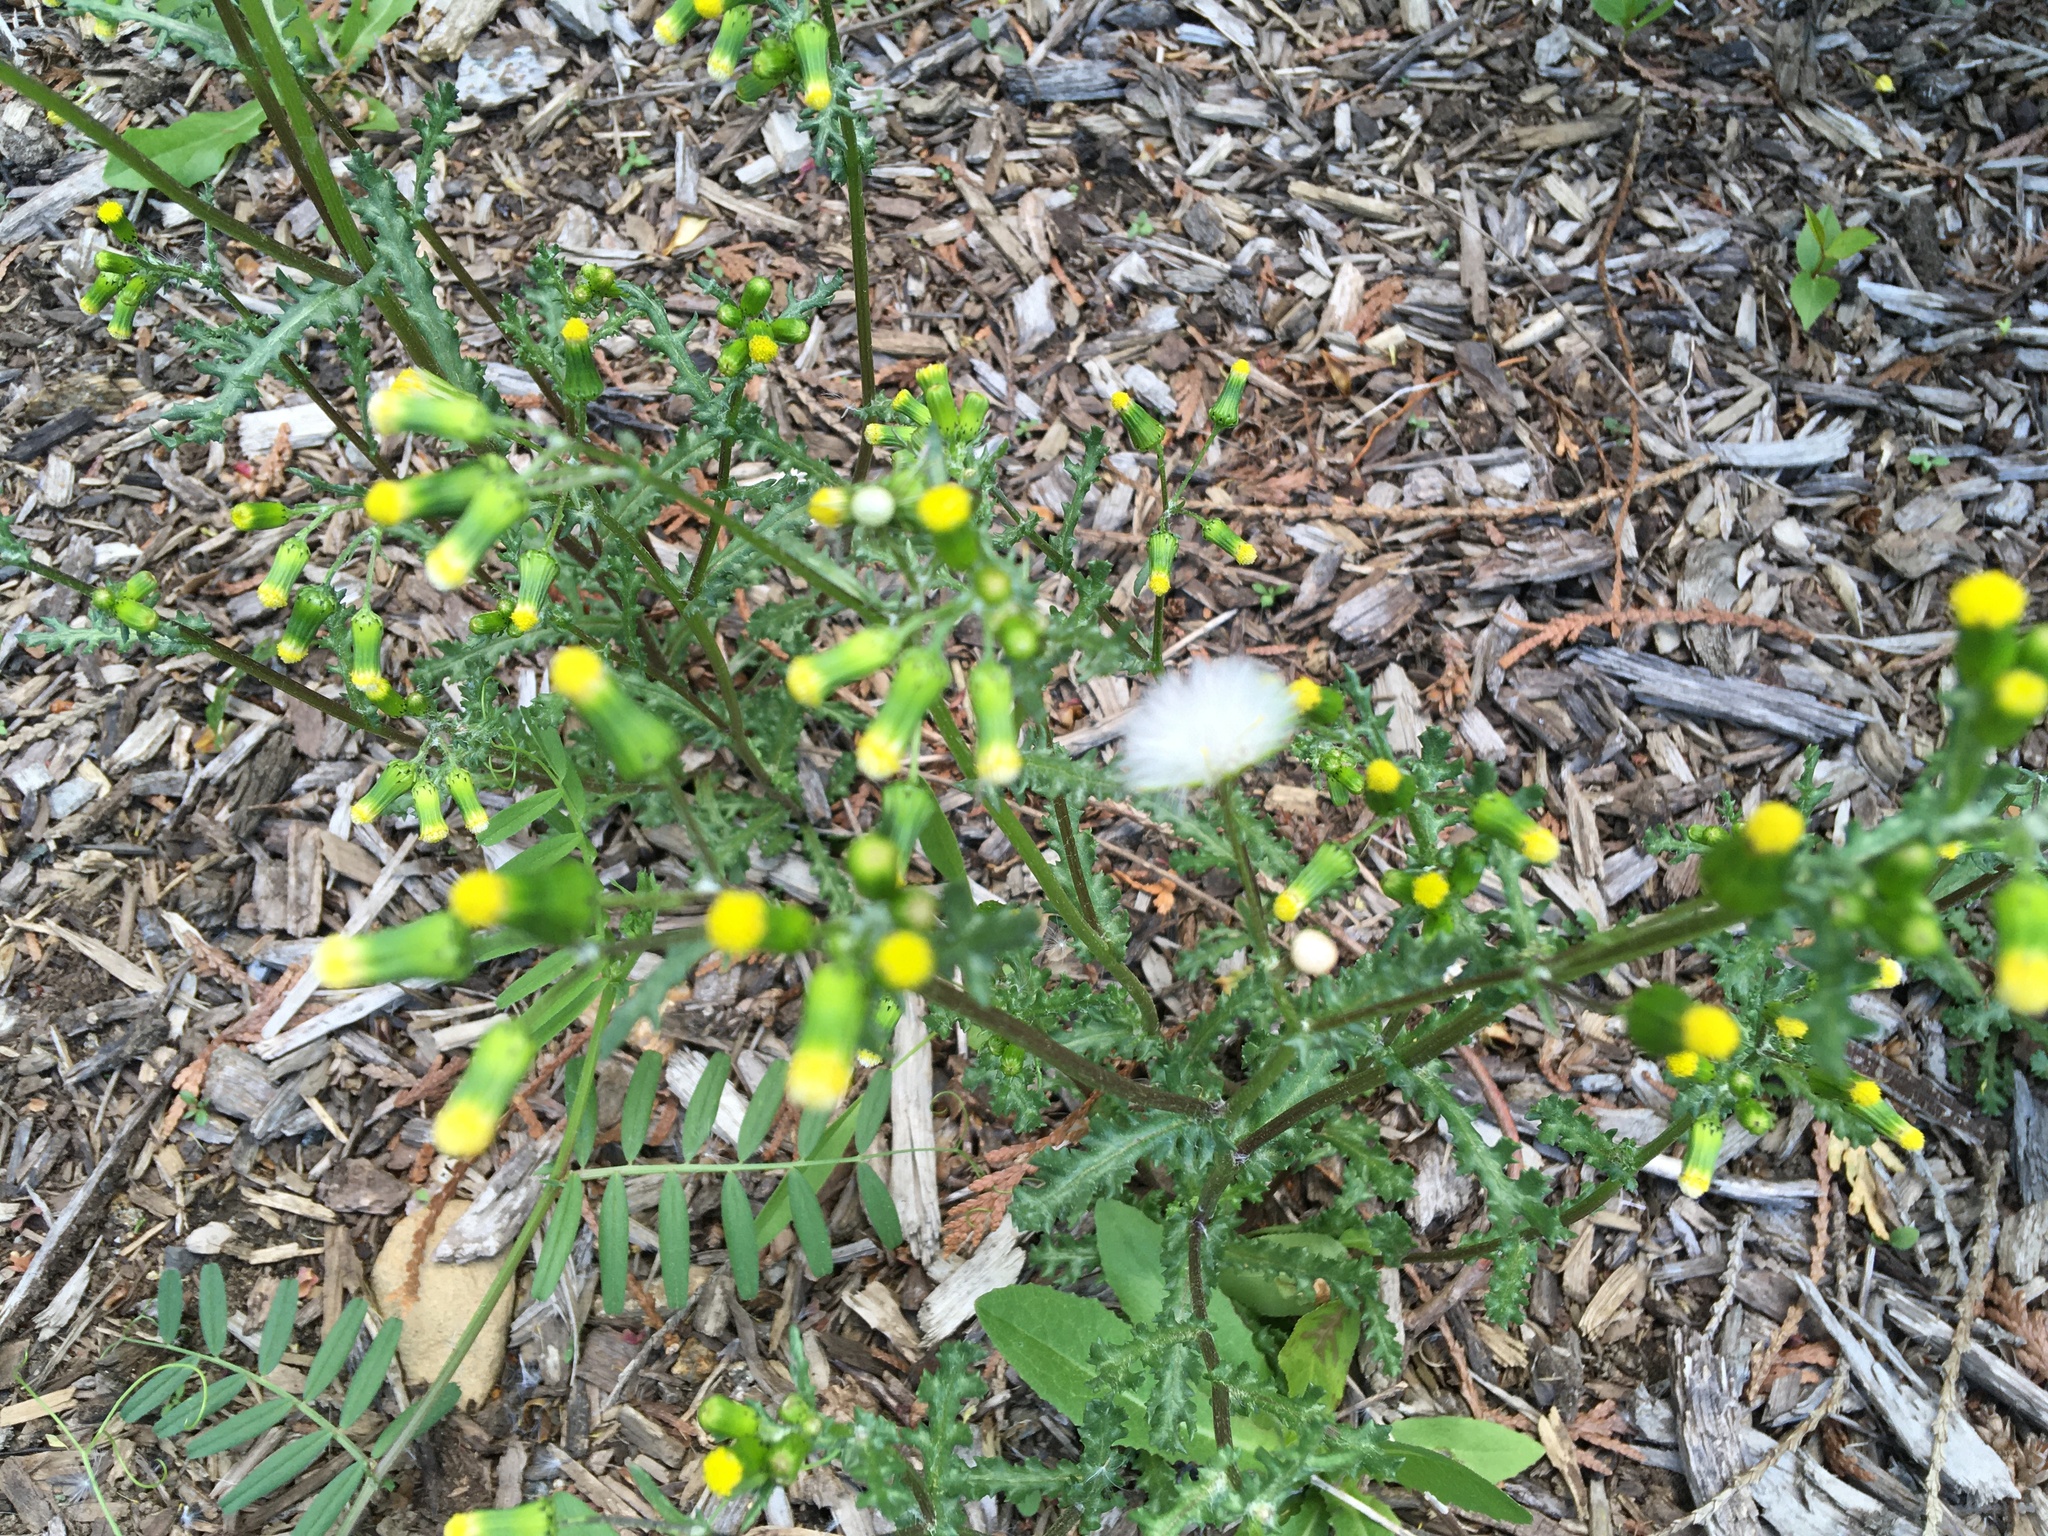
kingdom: Plantae
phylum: Tracheophyta
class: Magnoliopsida
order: Asterales
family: Asteraceae
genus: Senecio
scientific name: Senecio vulgaris
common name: Old-man-in-the-spring
